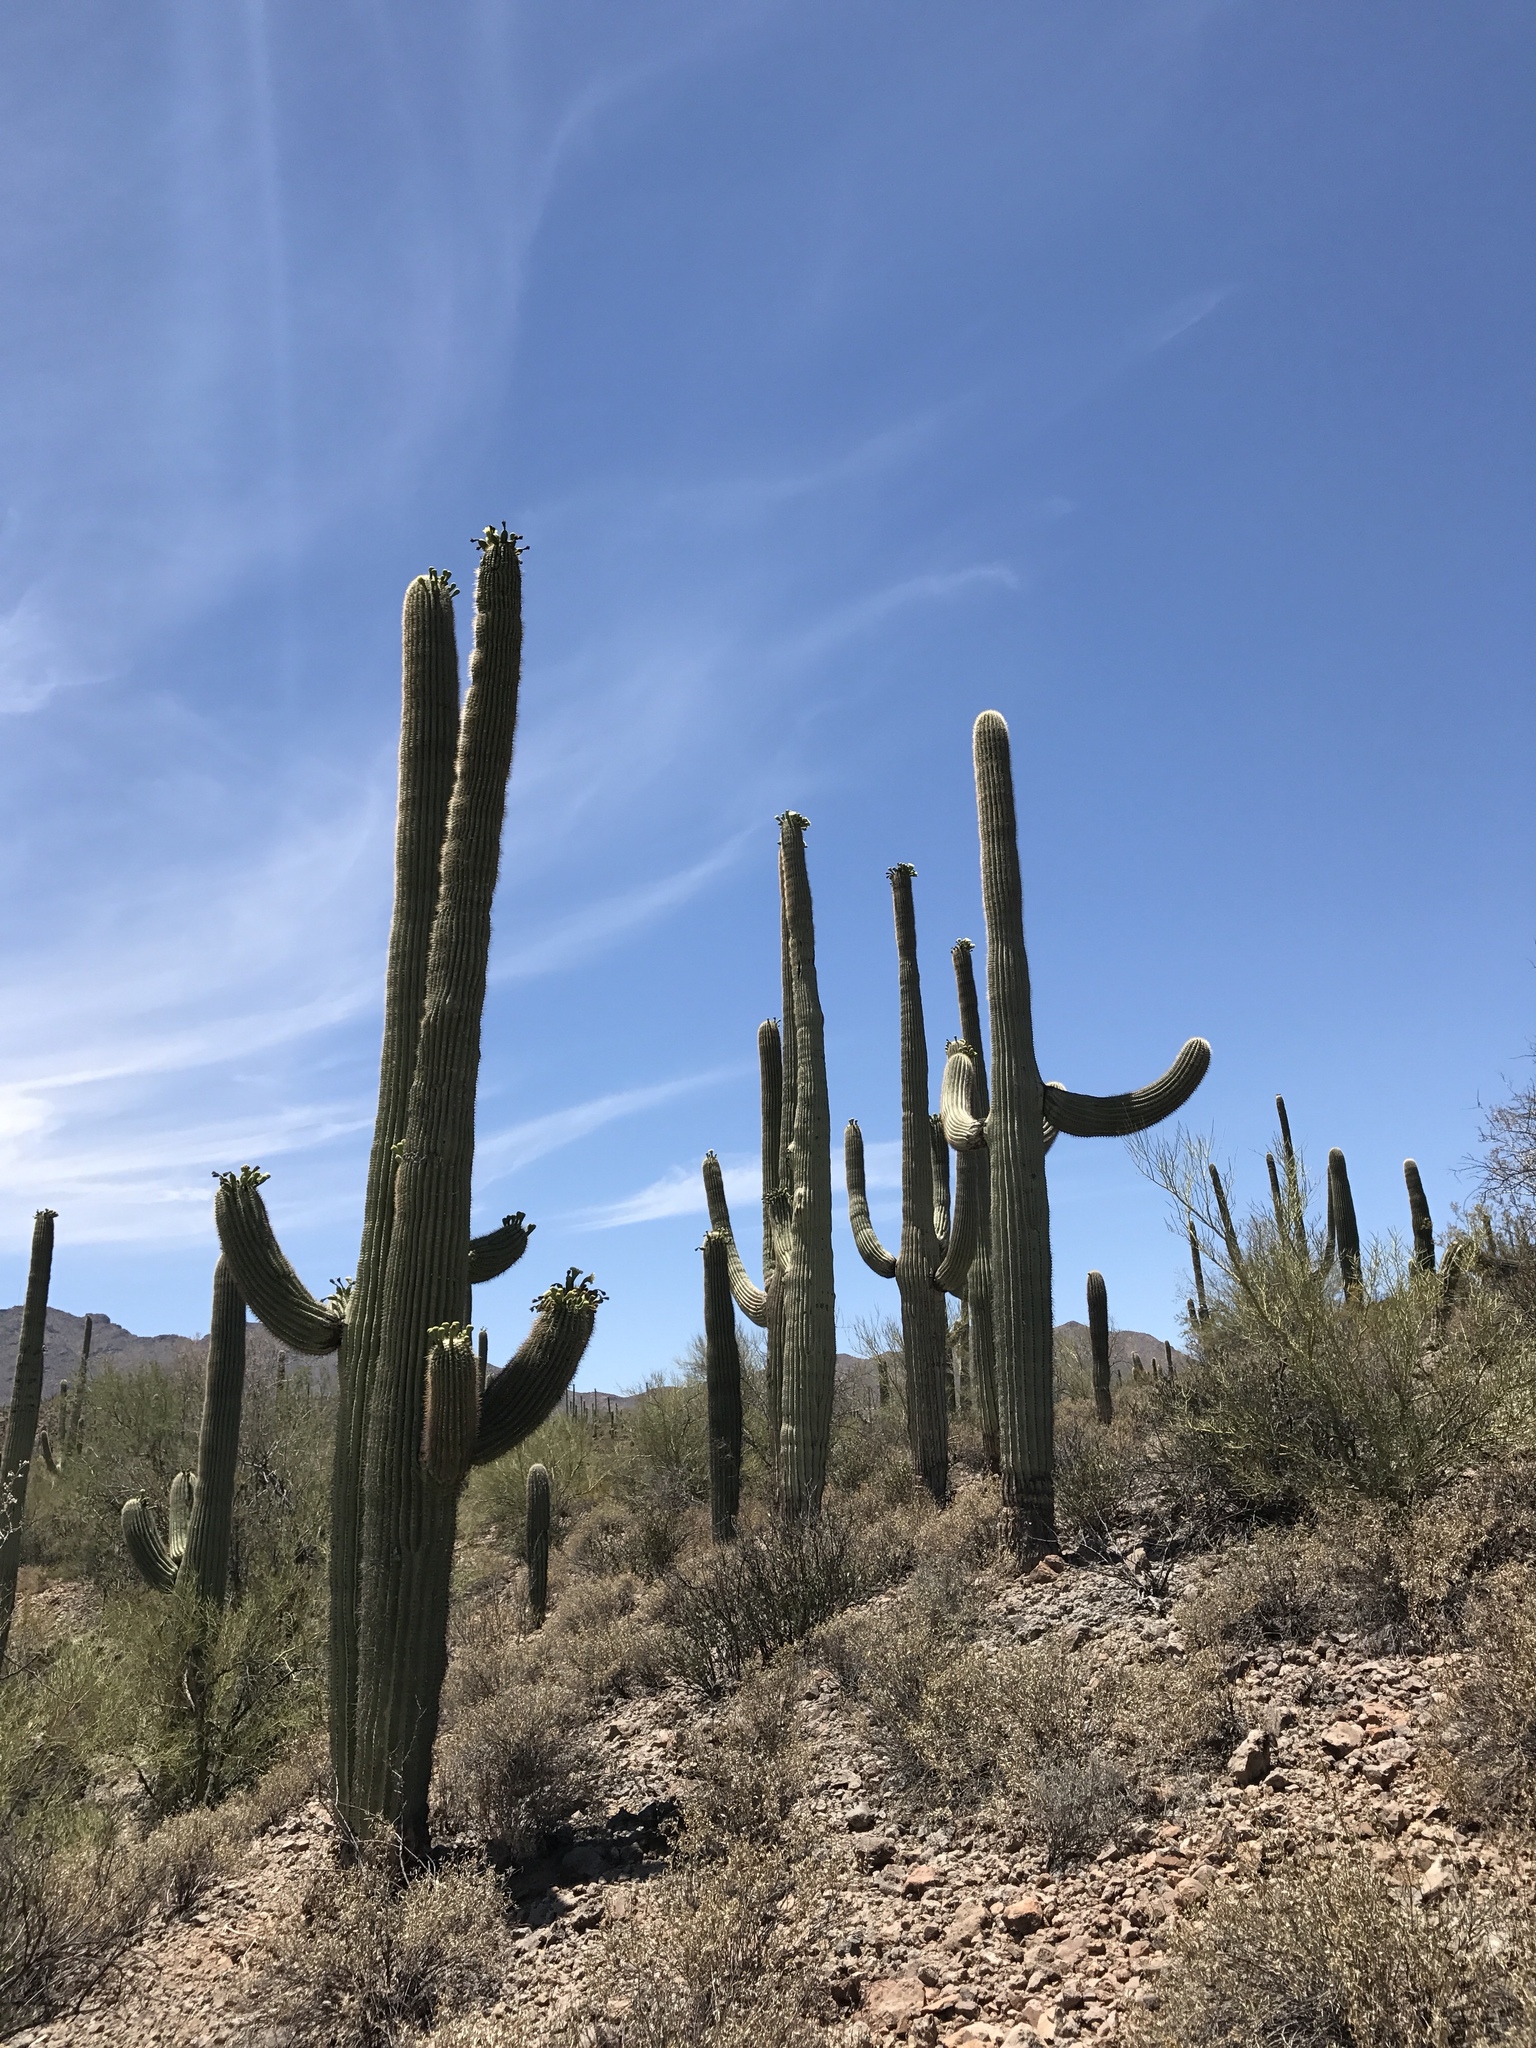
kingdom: Plantae
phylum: Tracheophyta
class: Magnoliopsida
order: Caryophyllales
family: Cactaceae
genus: Carnegiea
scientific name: Carnegiea gigantea
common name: Saguaro
